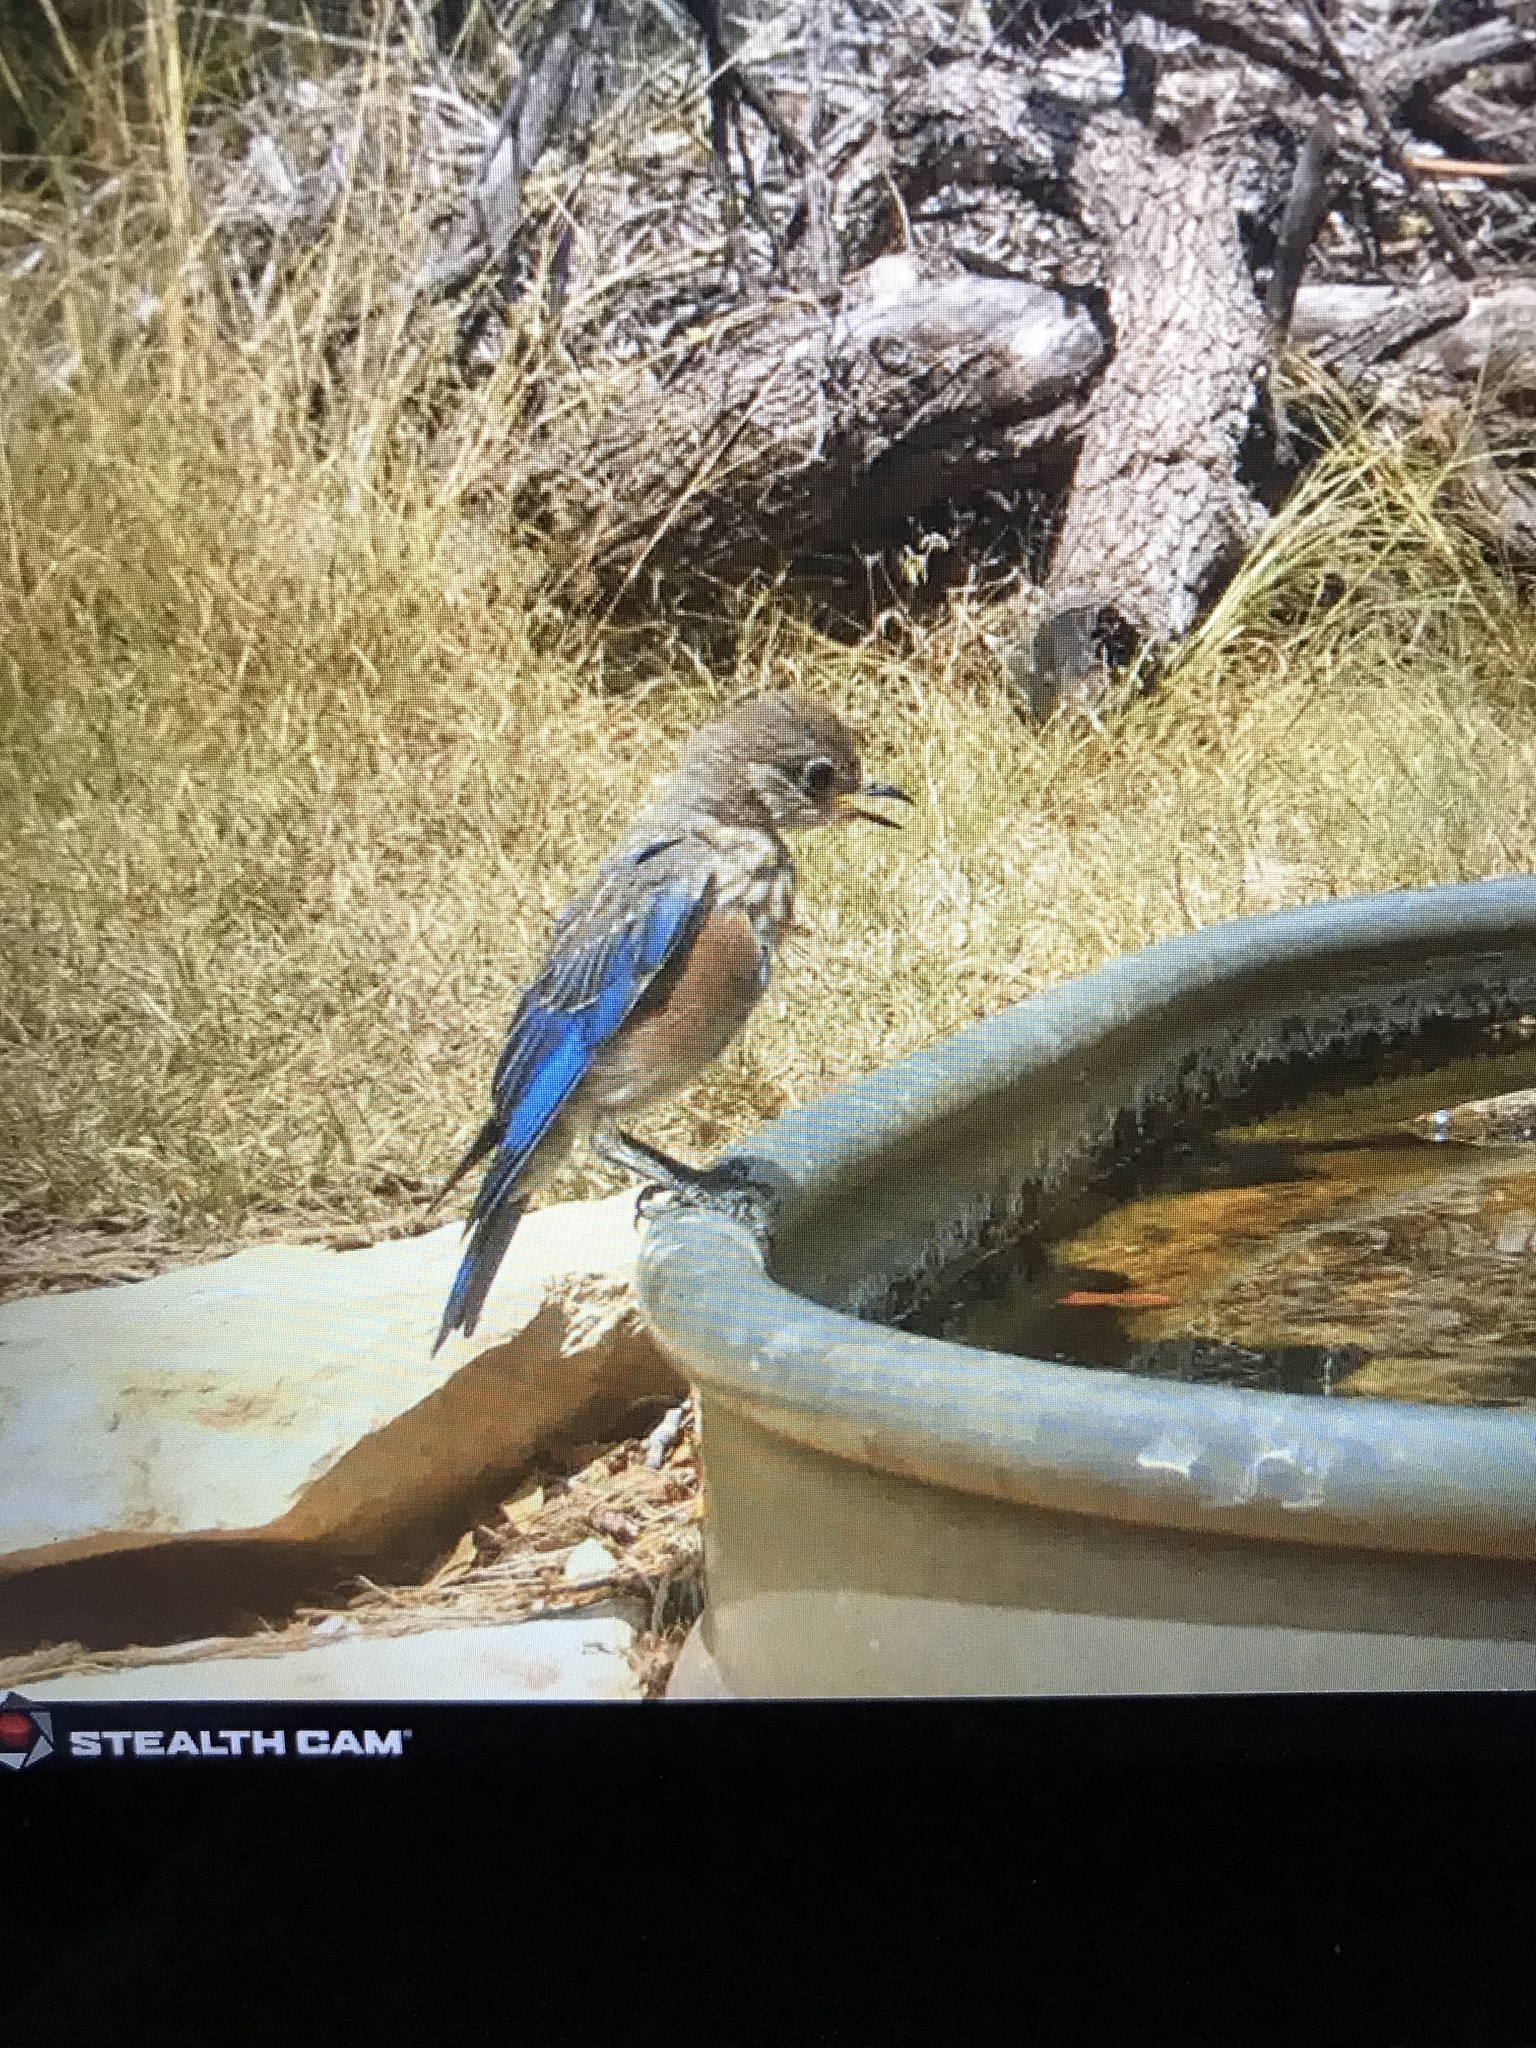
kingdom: Animalia
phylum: Chordata
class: Aves
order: Passeriformes
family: Turdidae
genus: Sialia
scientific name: Sialia sialis
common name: Eastern bluebird
